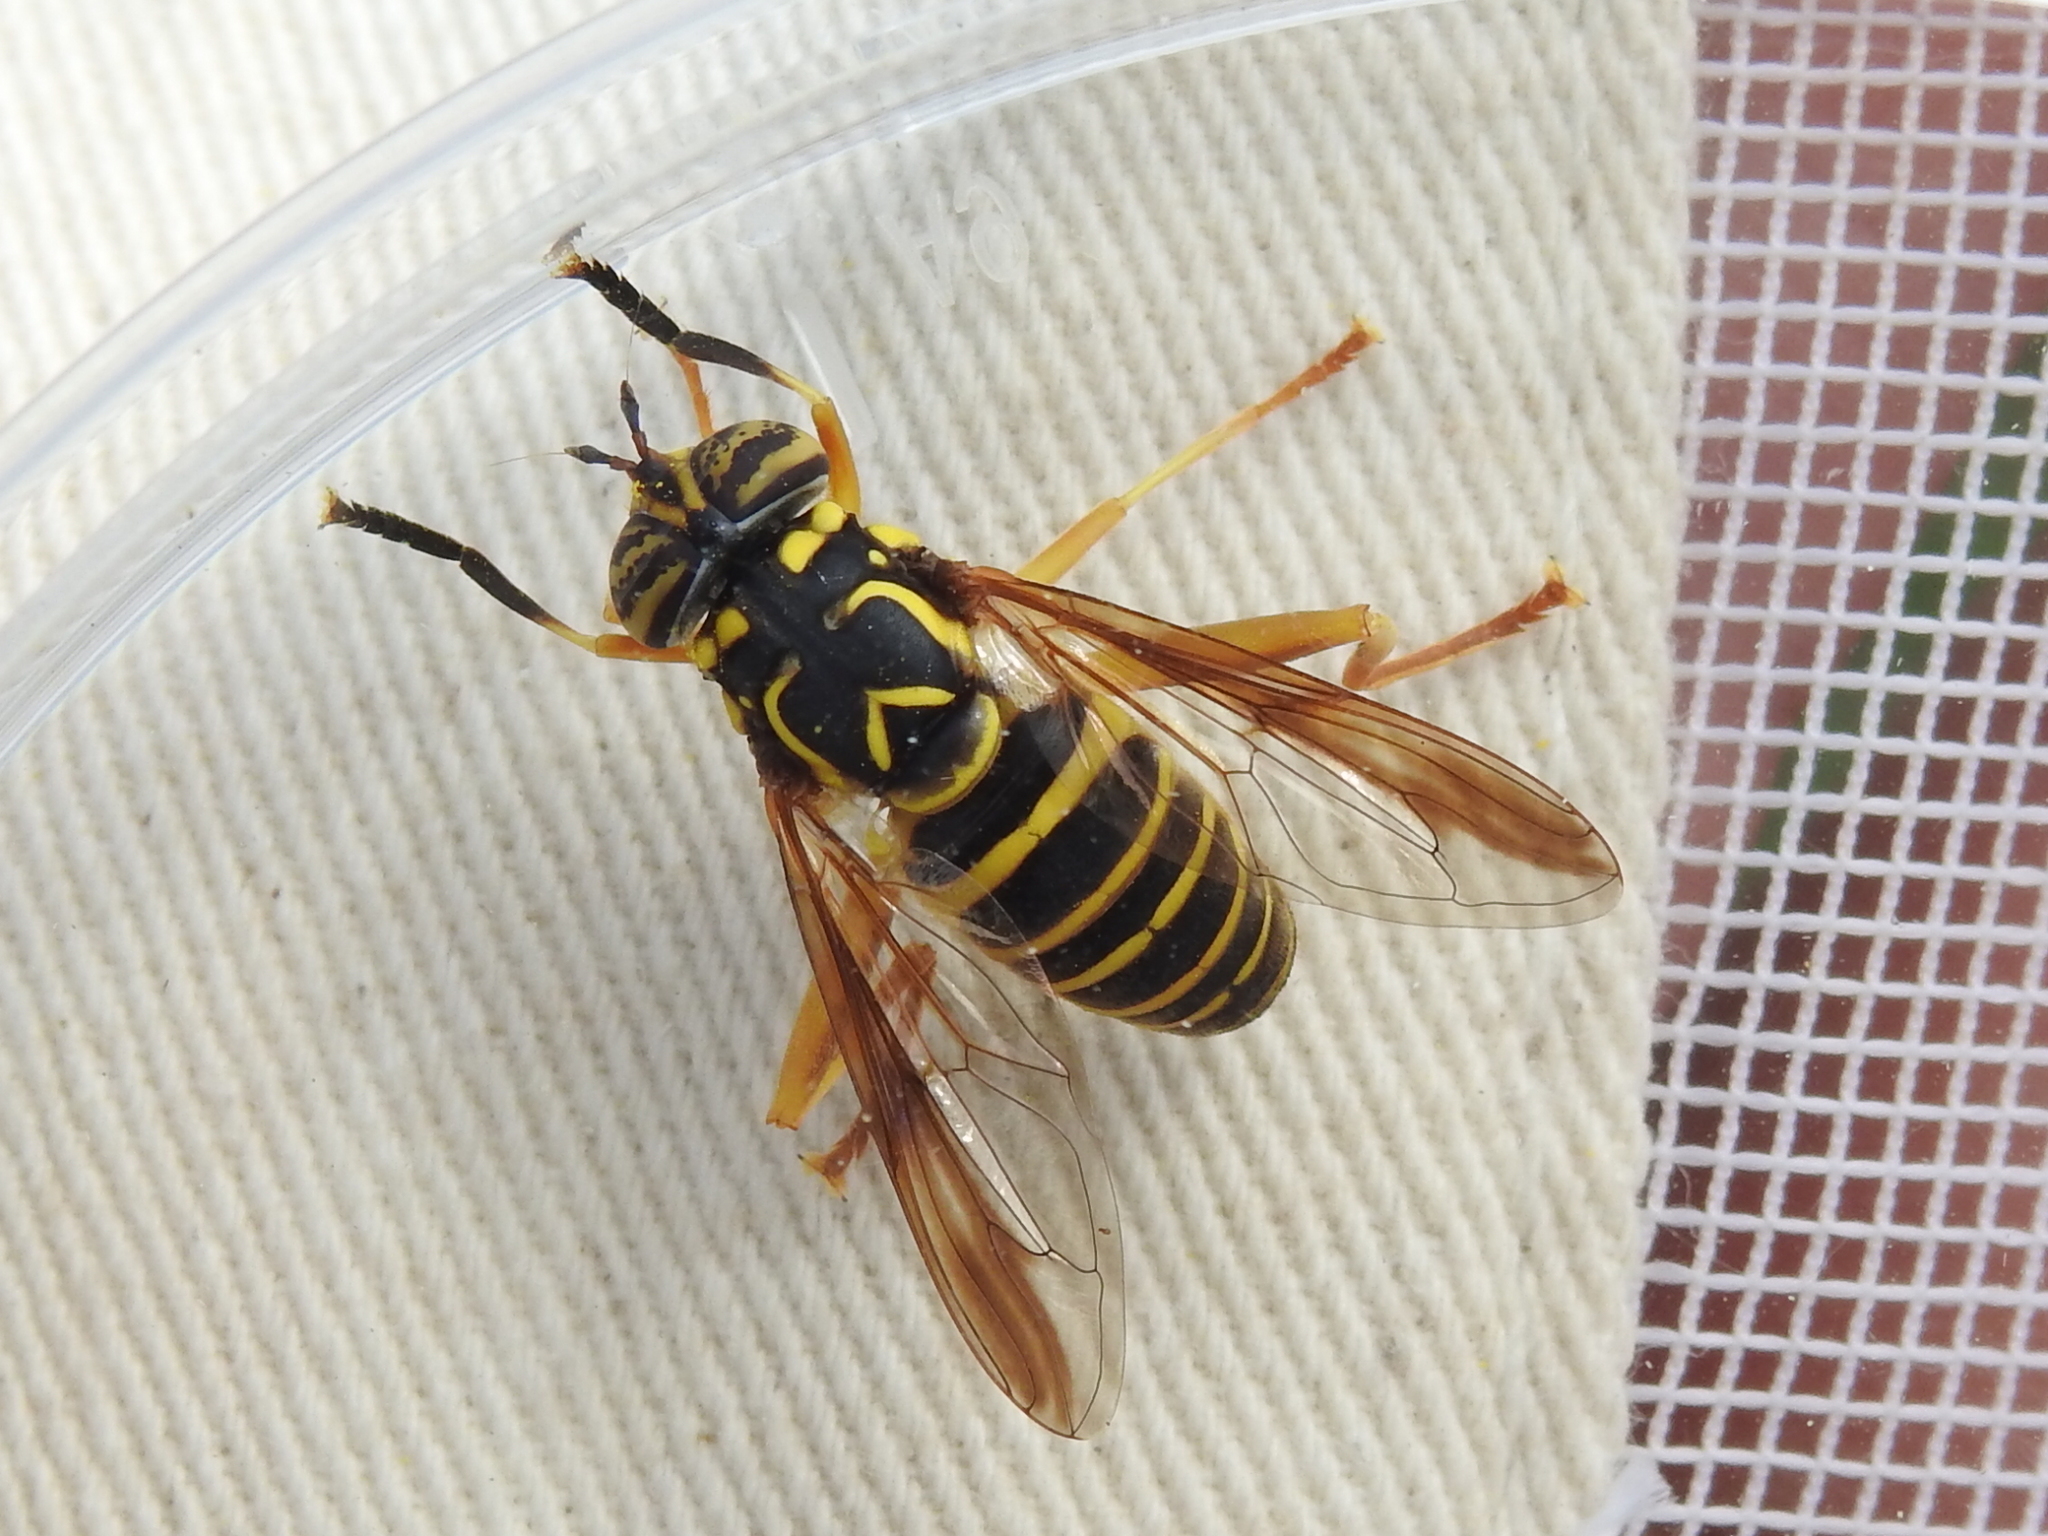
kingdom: Animalia
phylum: Arthropoda
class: Insecta
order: Diptera
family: Syrphidae
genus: Spilomyia
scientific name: Spilomyia longicornis
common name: Eastern hornet fly
